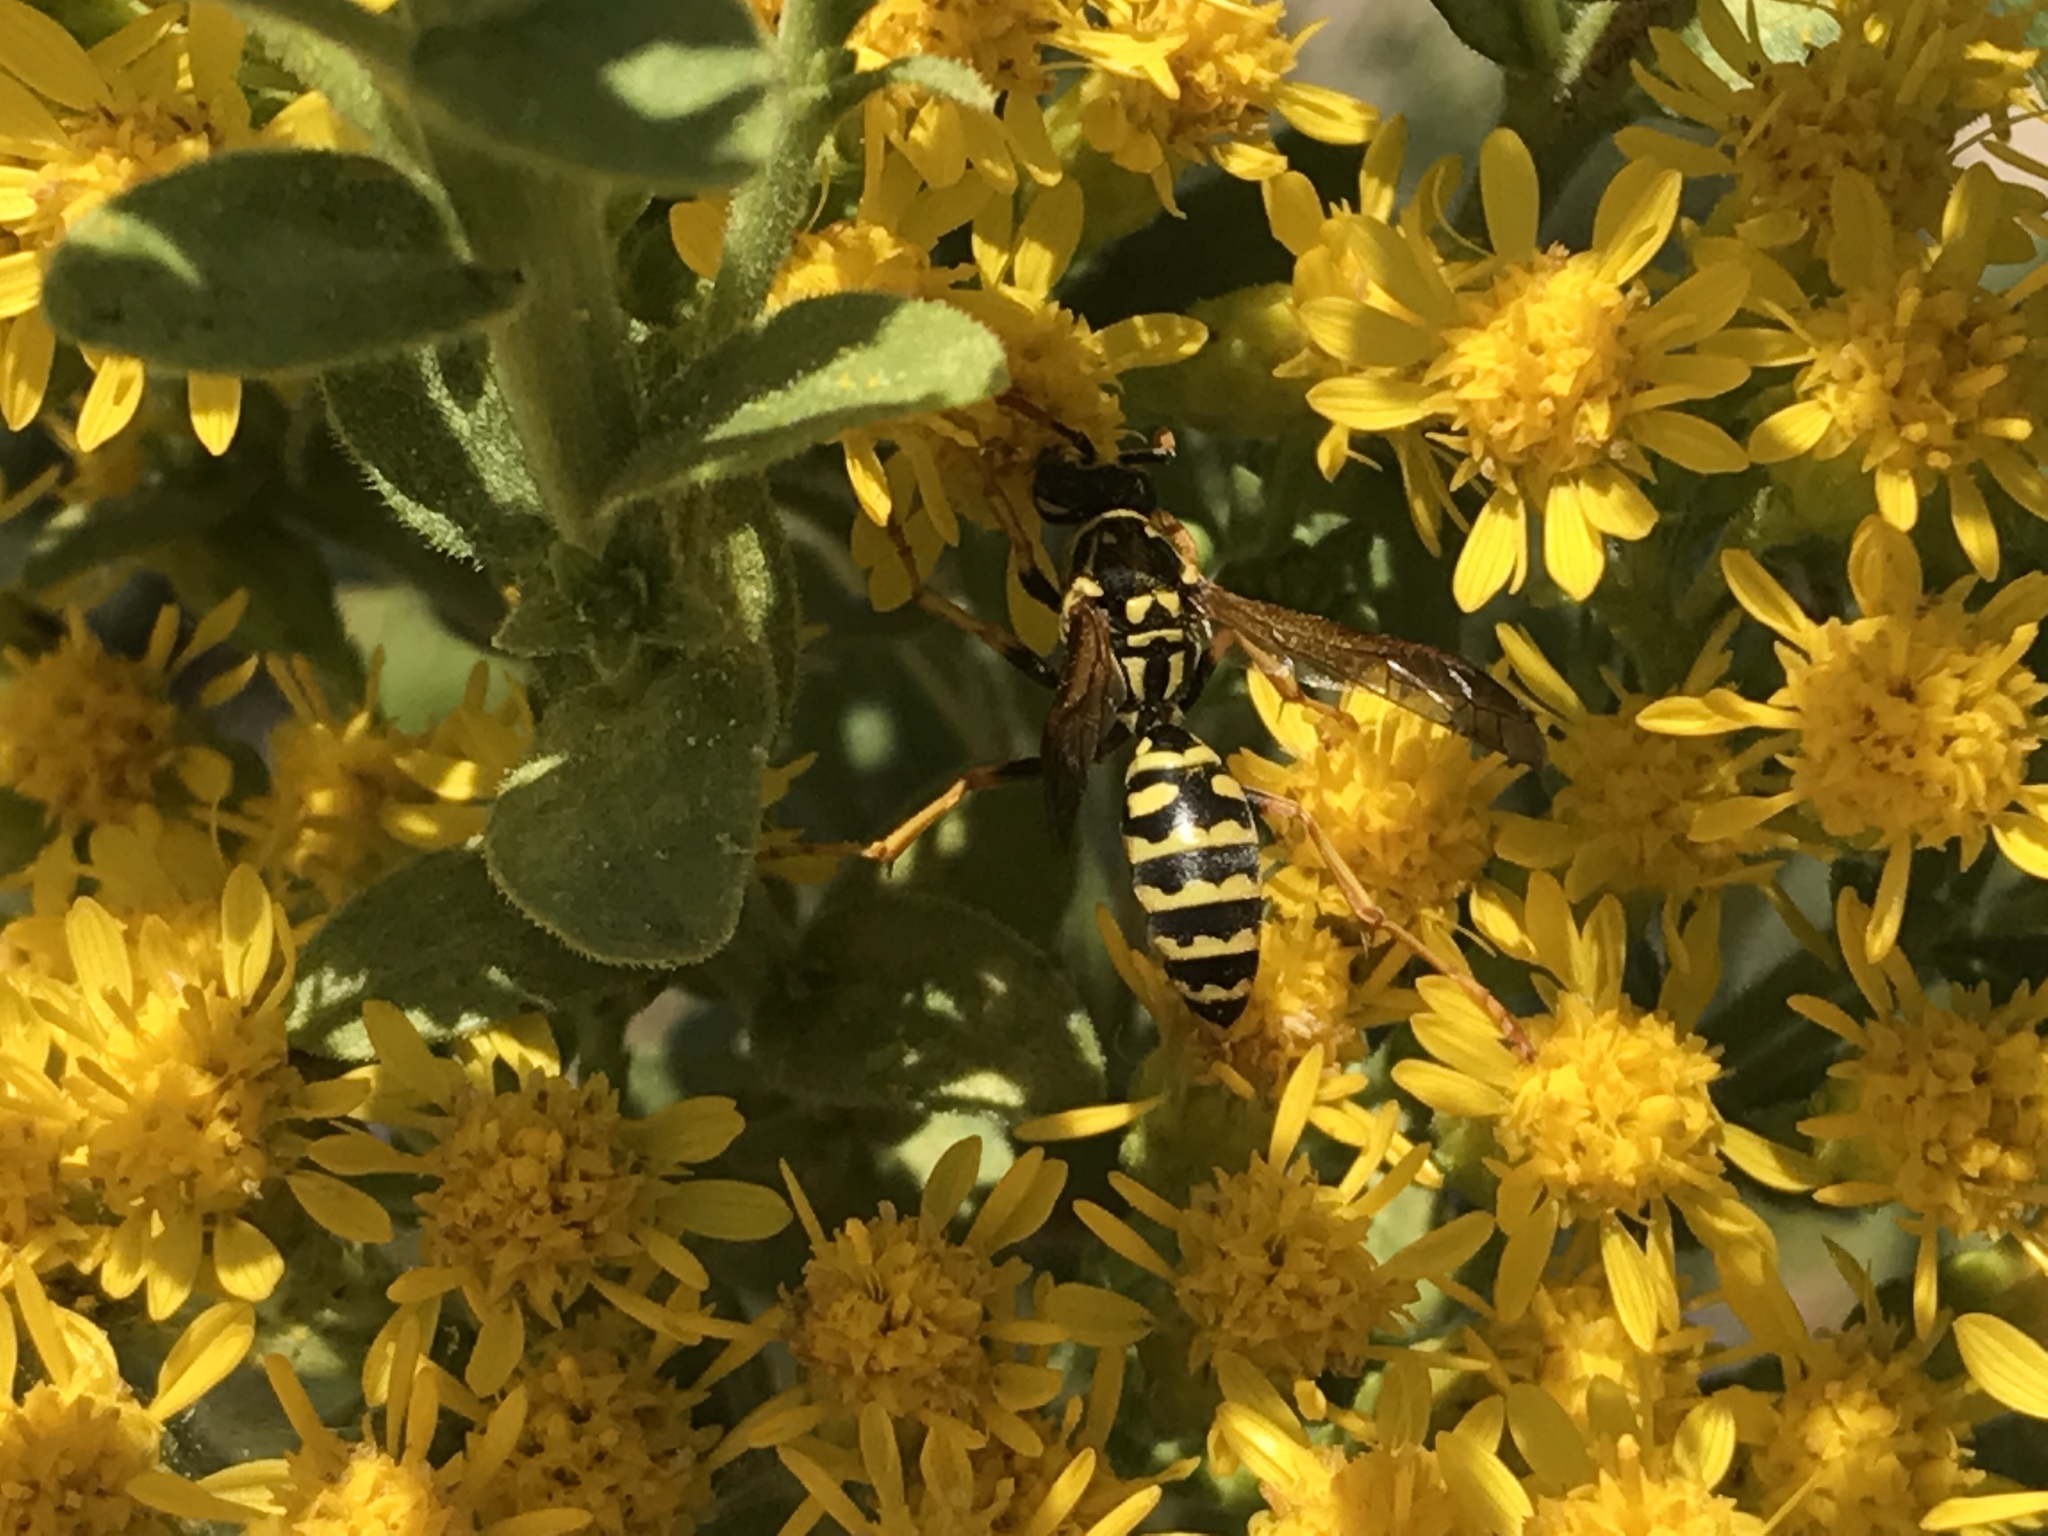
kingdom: Animalia
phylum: Arthropoda
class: Insecta
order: Hymenoptera
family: Eumenidae
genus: Polistes
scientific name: Polistes dominula
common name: Paper wasp
